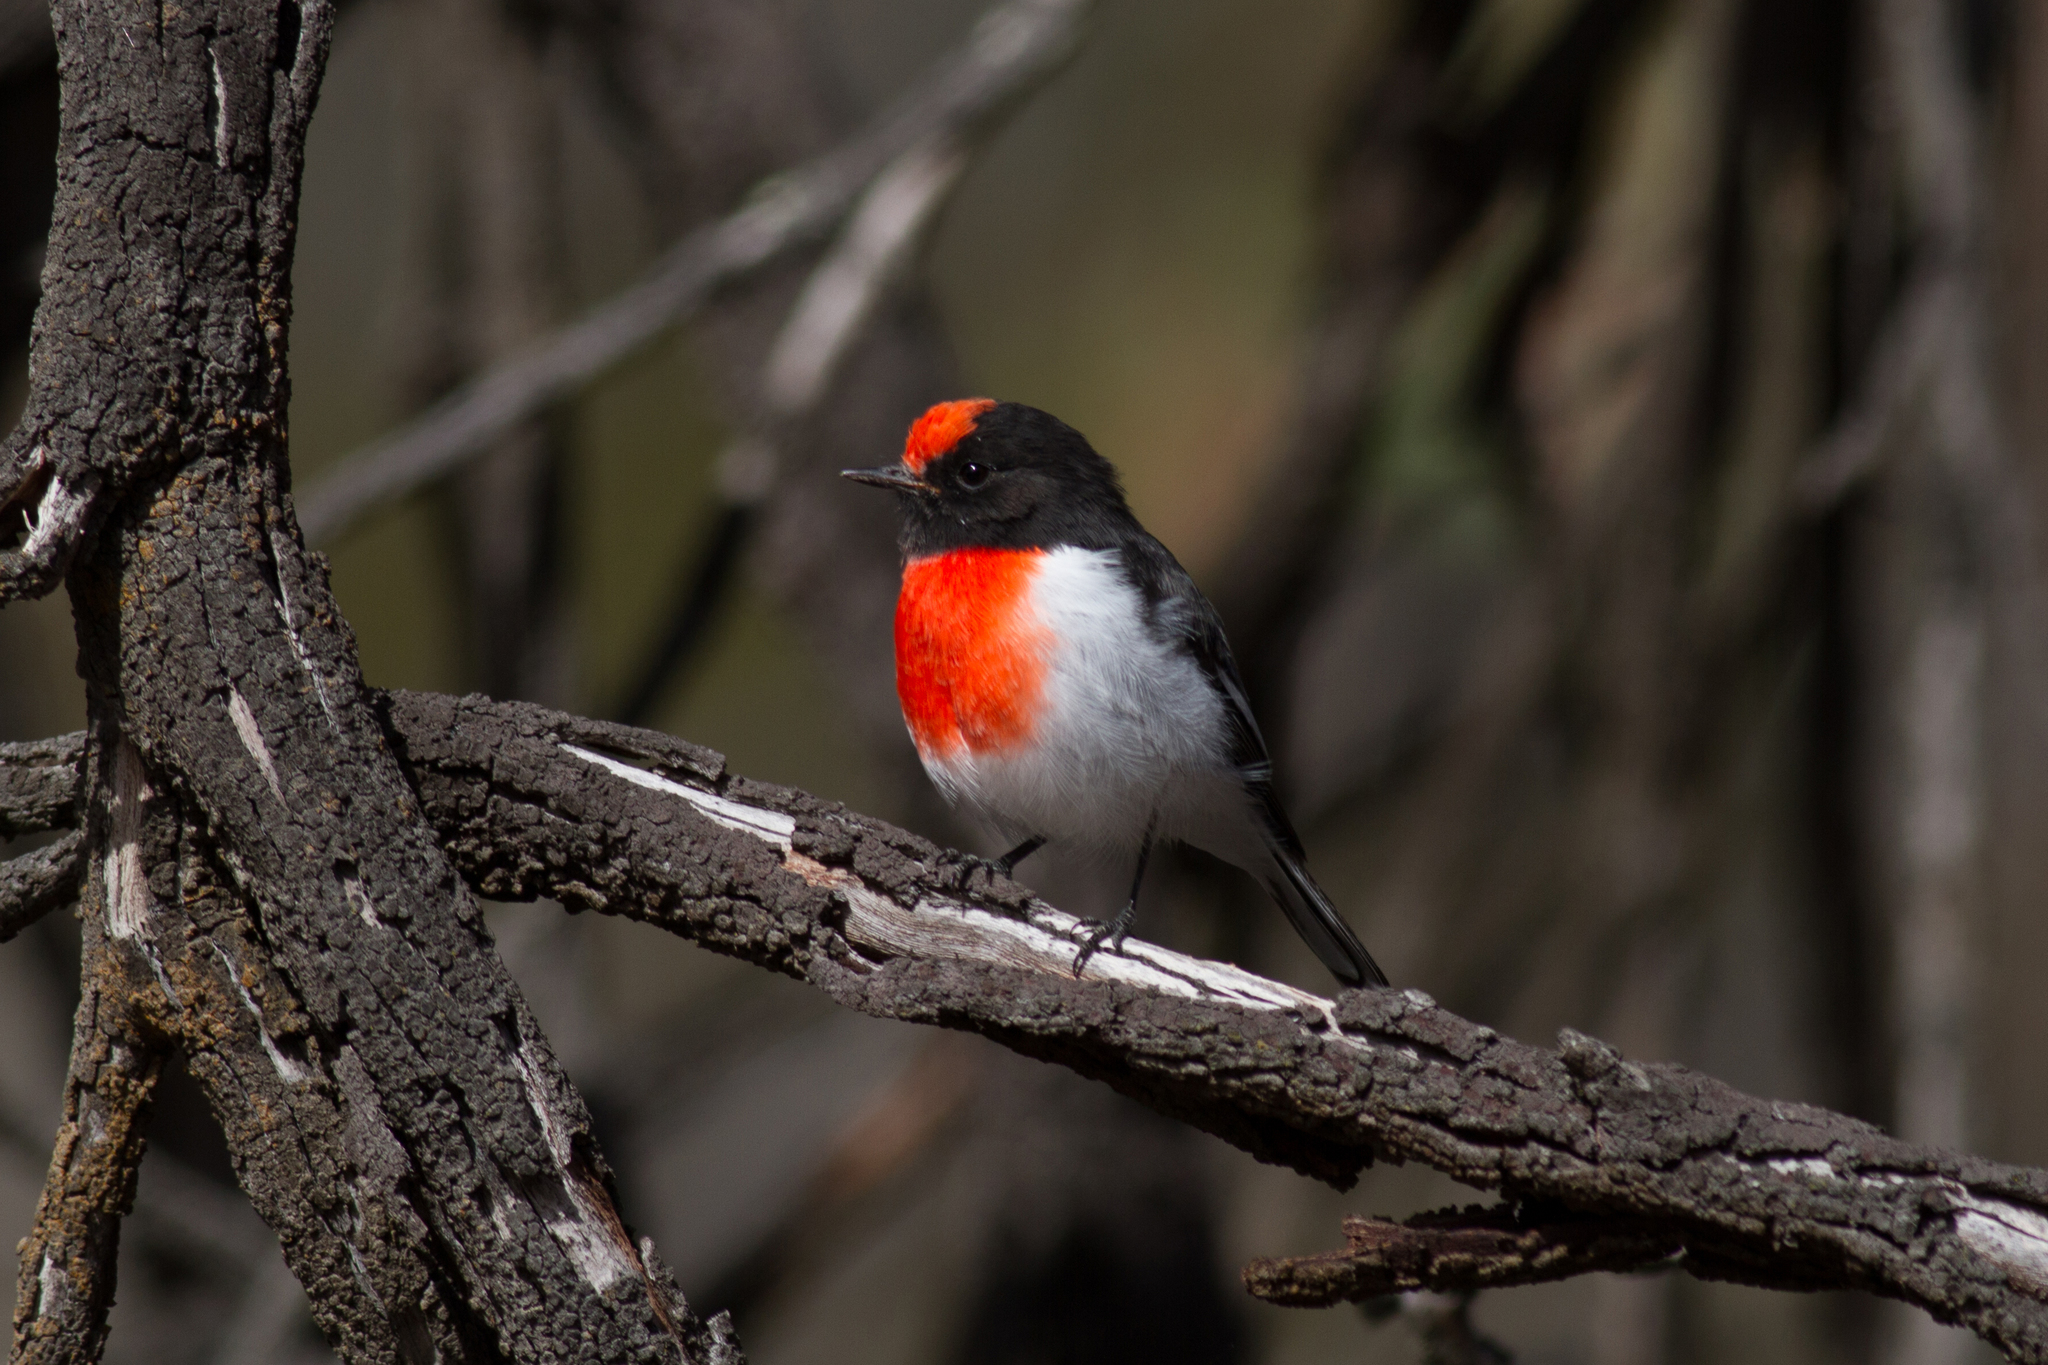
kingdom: Animalia
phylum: Chordata
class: Aves
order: Passeriformes
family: Petroicidae
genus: Petroica
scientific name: Petroica goodenovii
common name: Red-capped robin
